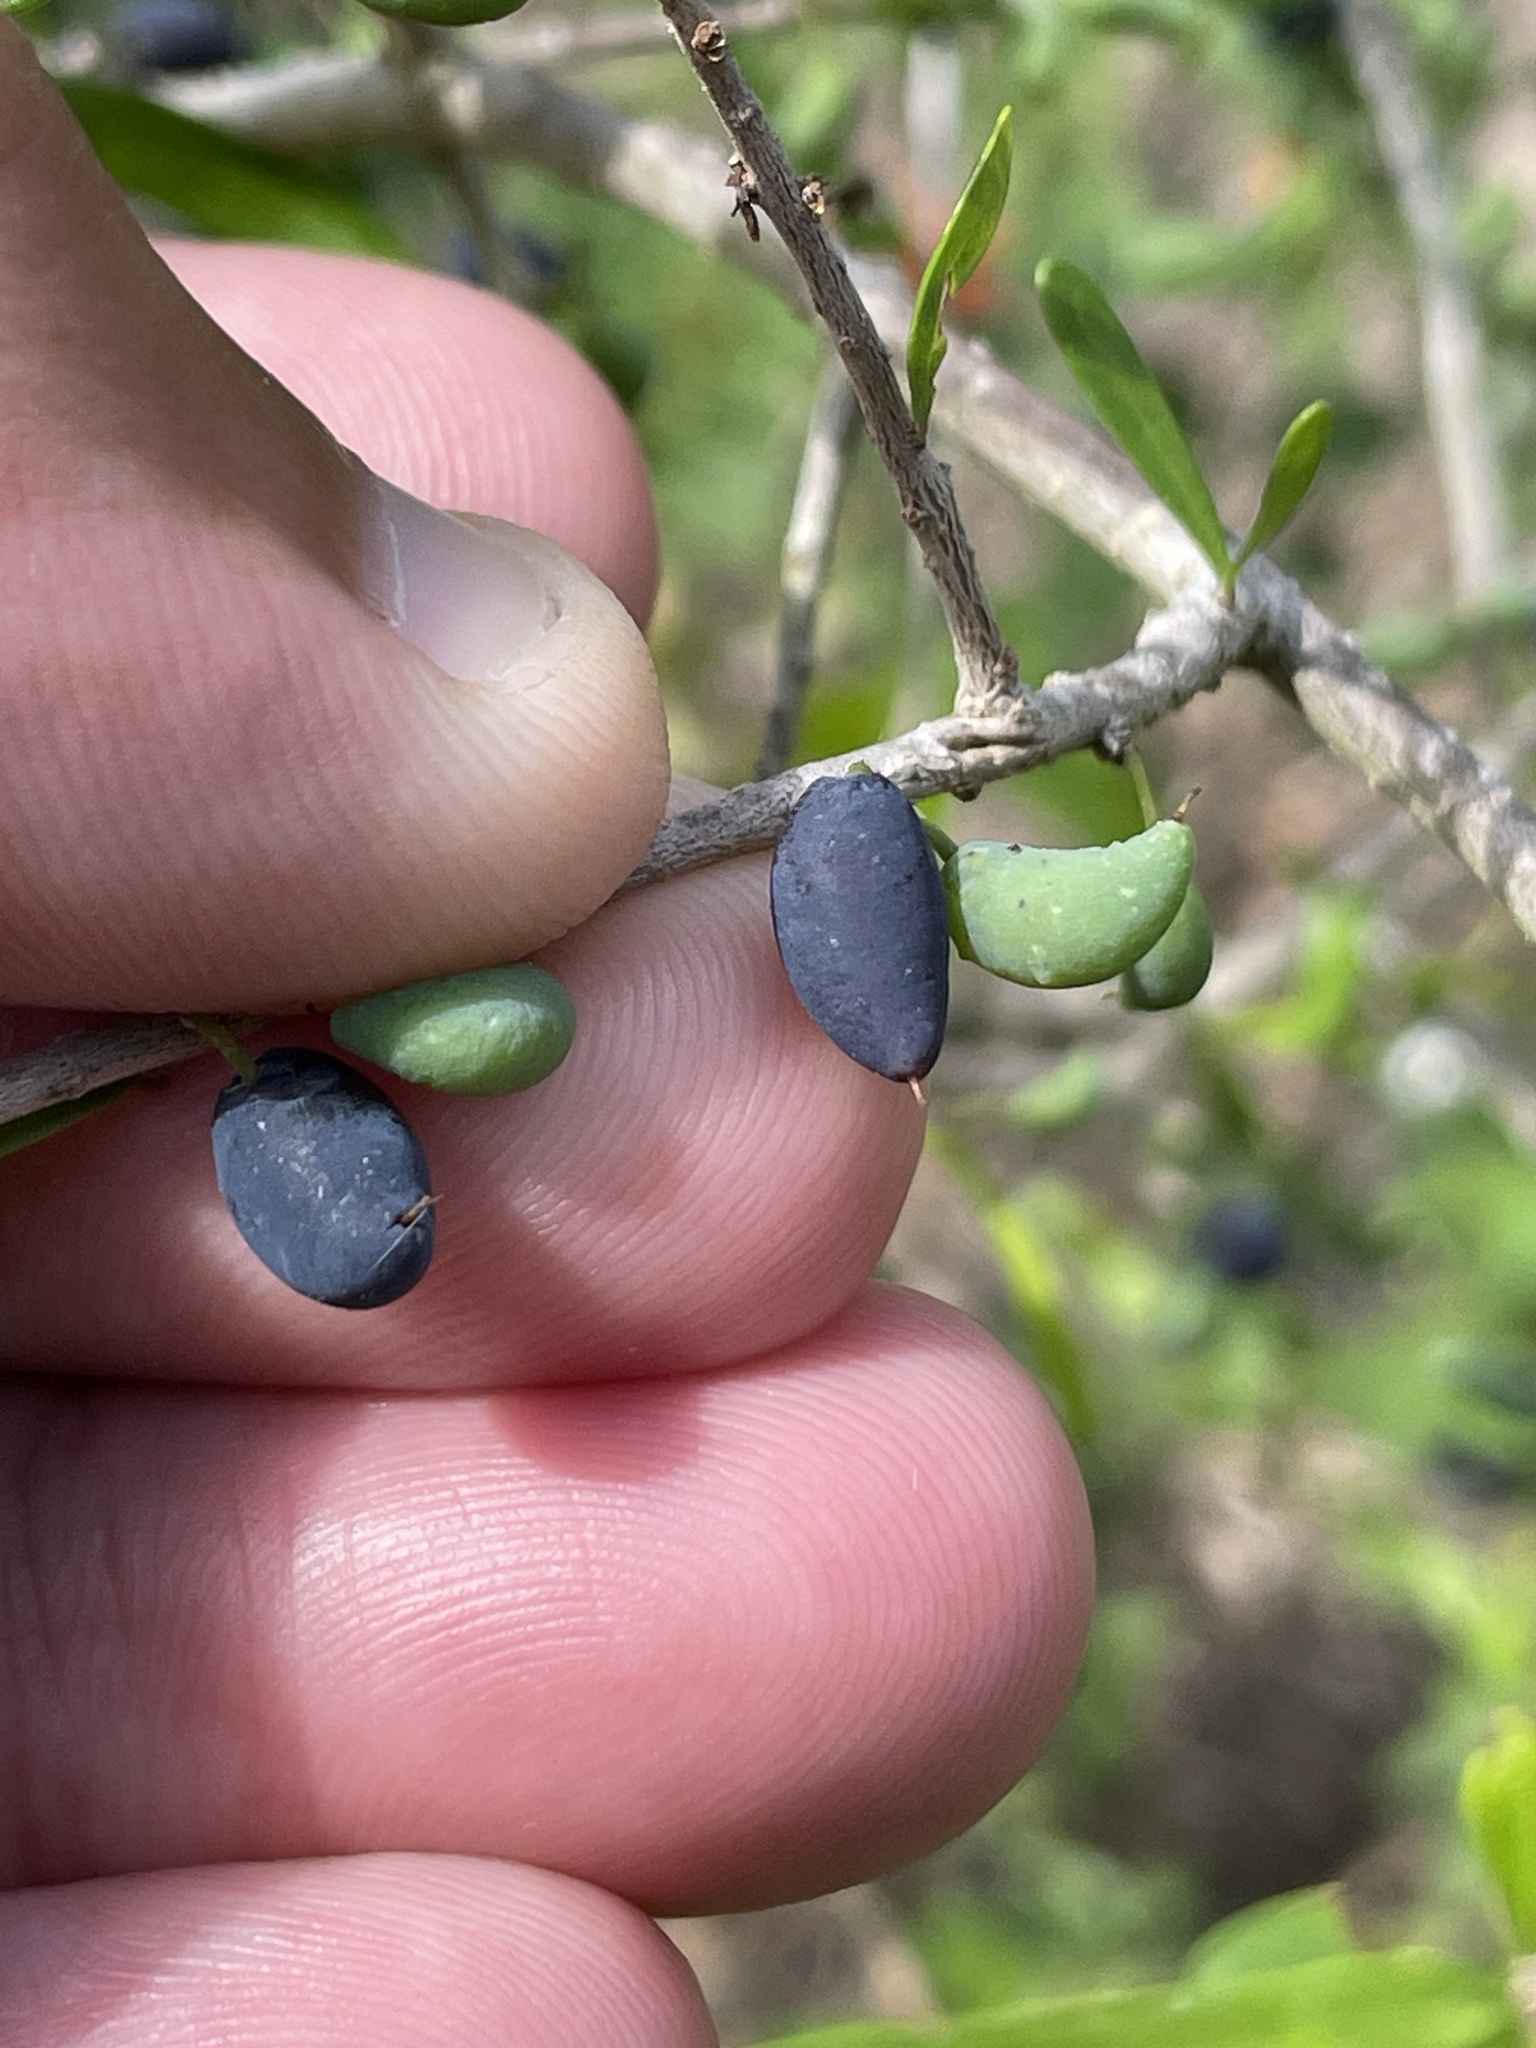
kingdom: Plantae
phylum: Tracheophyta
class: Magnoliopsida
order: Lamiales
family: Oleaceae
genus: Forestiera
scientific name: Forestiera angustifolia
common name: Elbowbush
